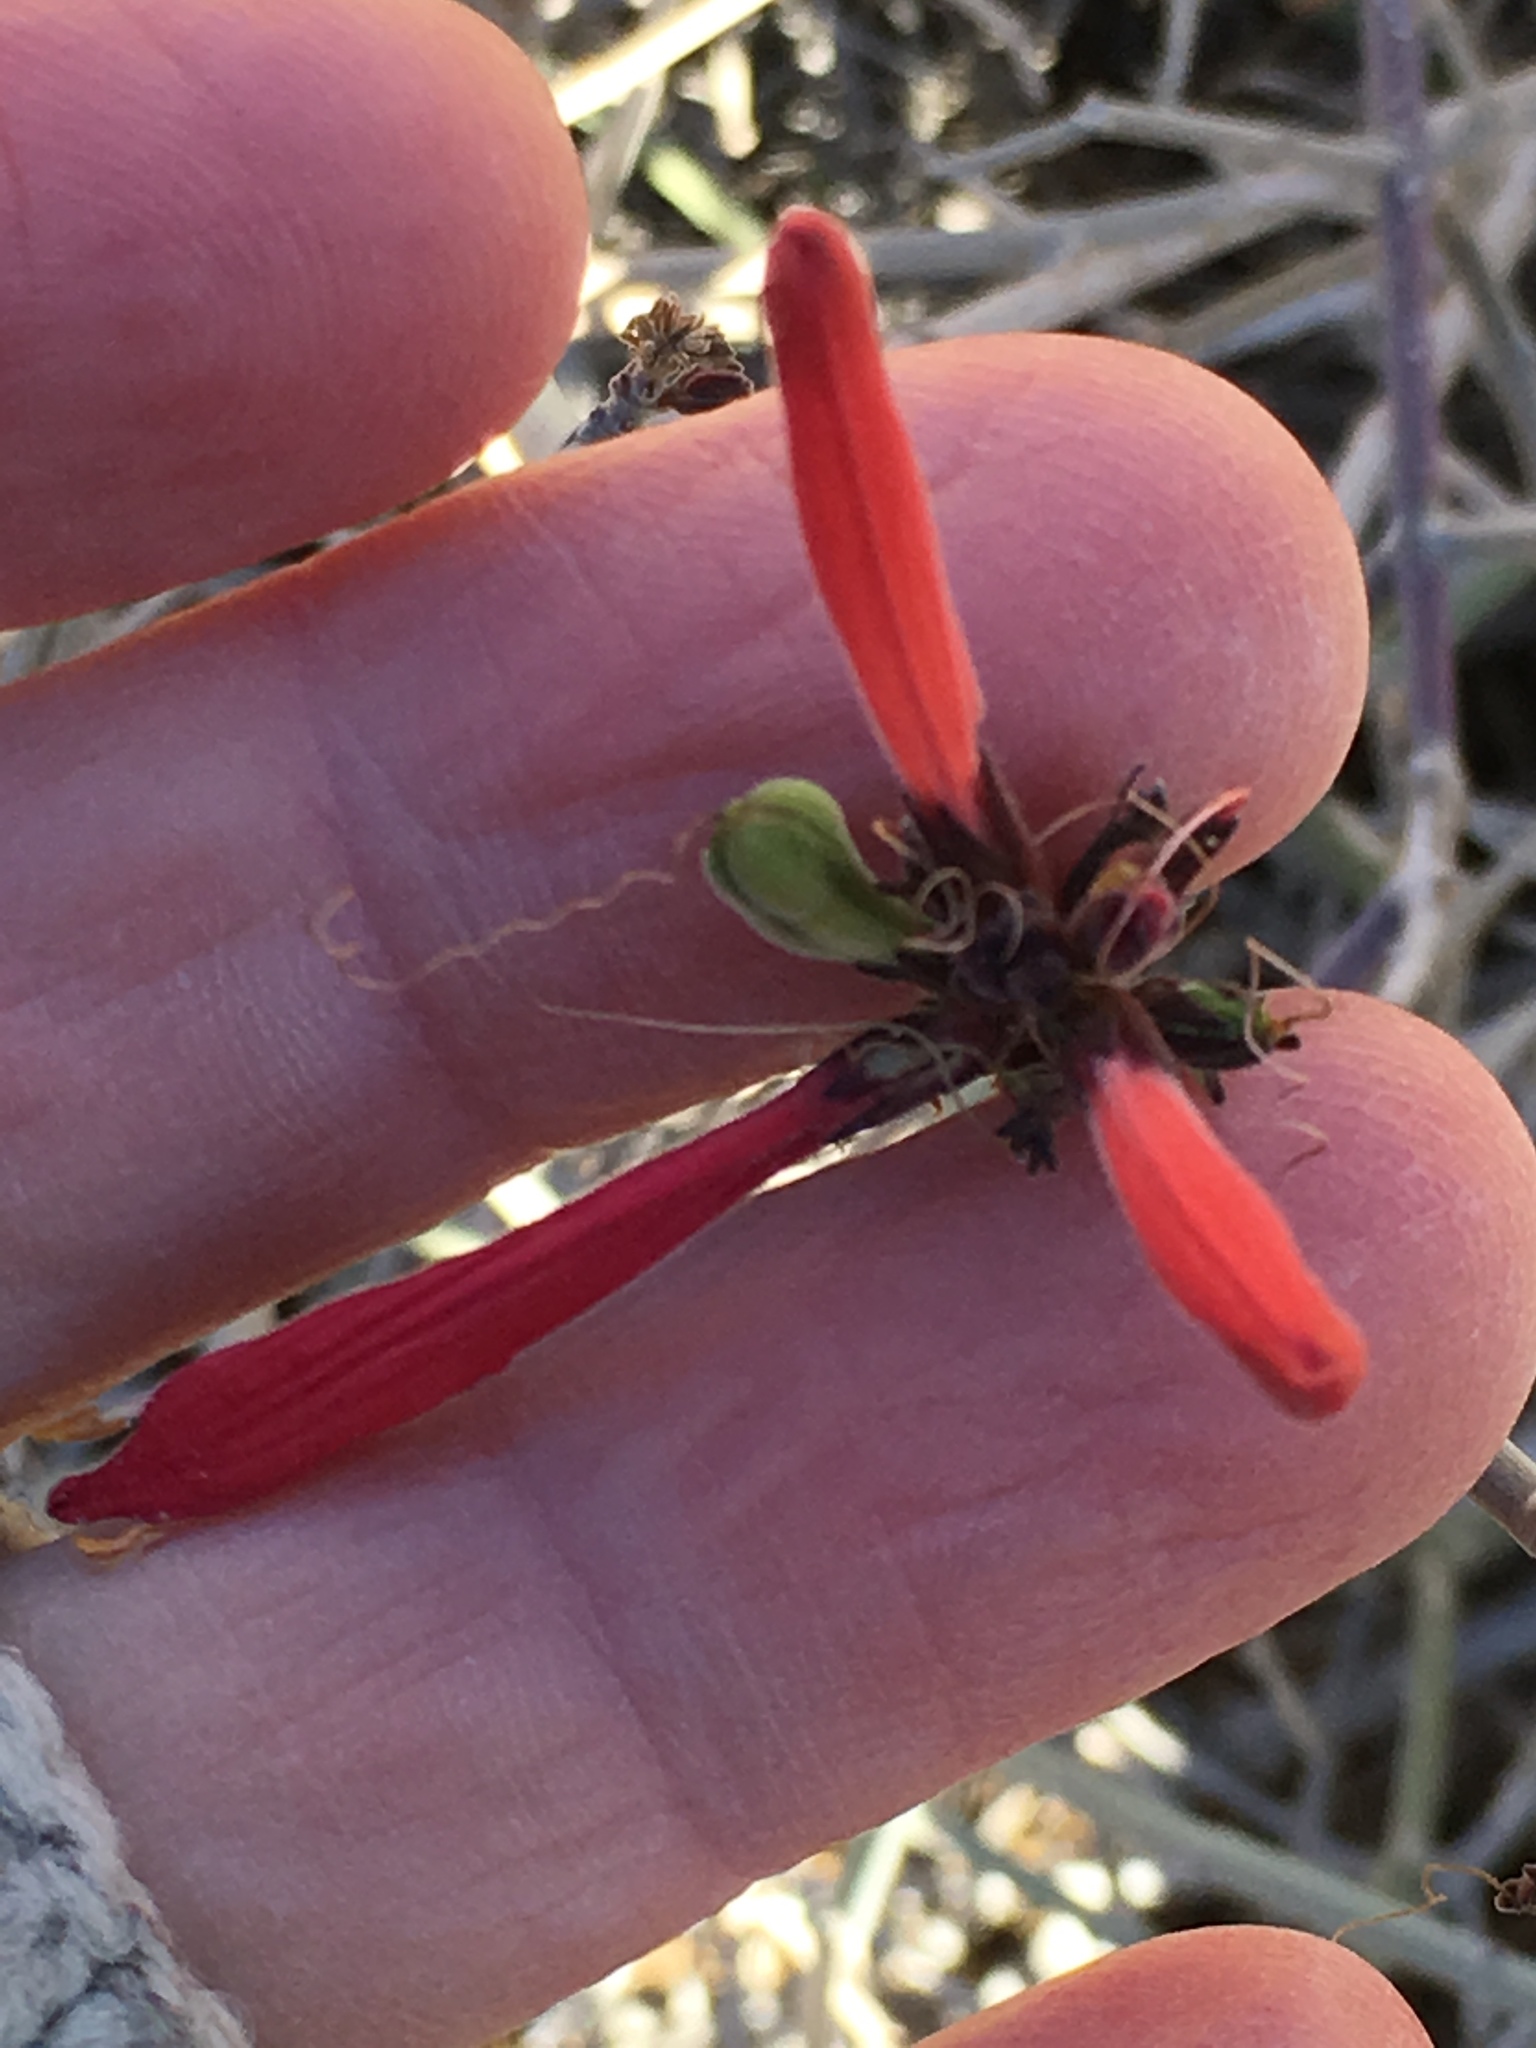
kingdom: Plantae
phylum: Tracheophyta
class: Magnoliopsida
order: Lamiales
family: Acanthaceae
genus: Justicia
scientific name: Justicia californica
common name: Chuparosa-honeysuckle
